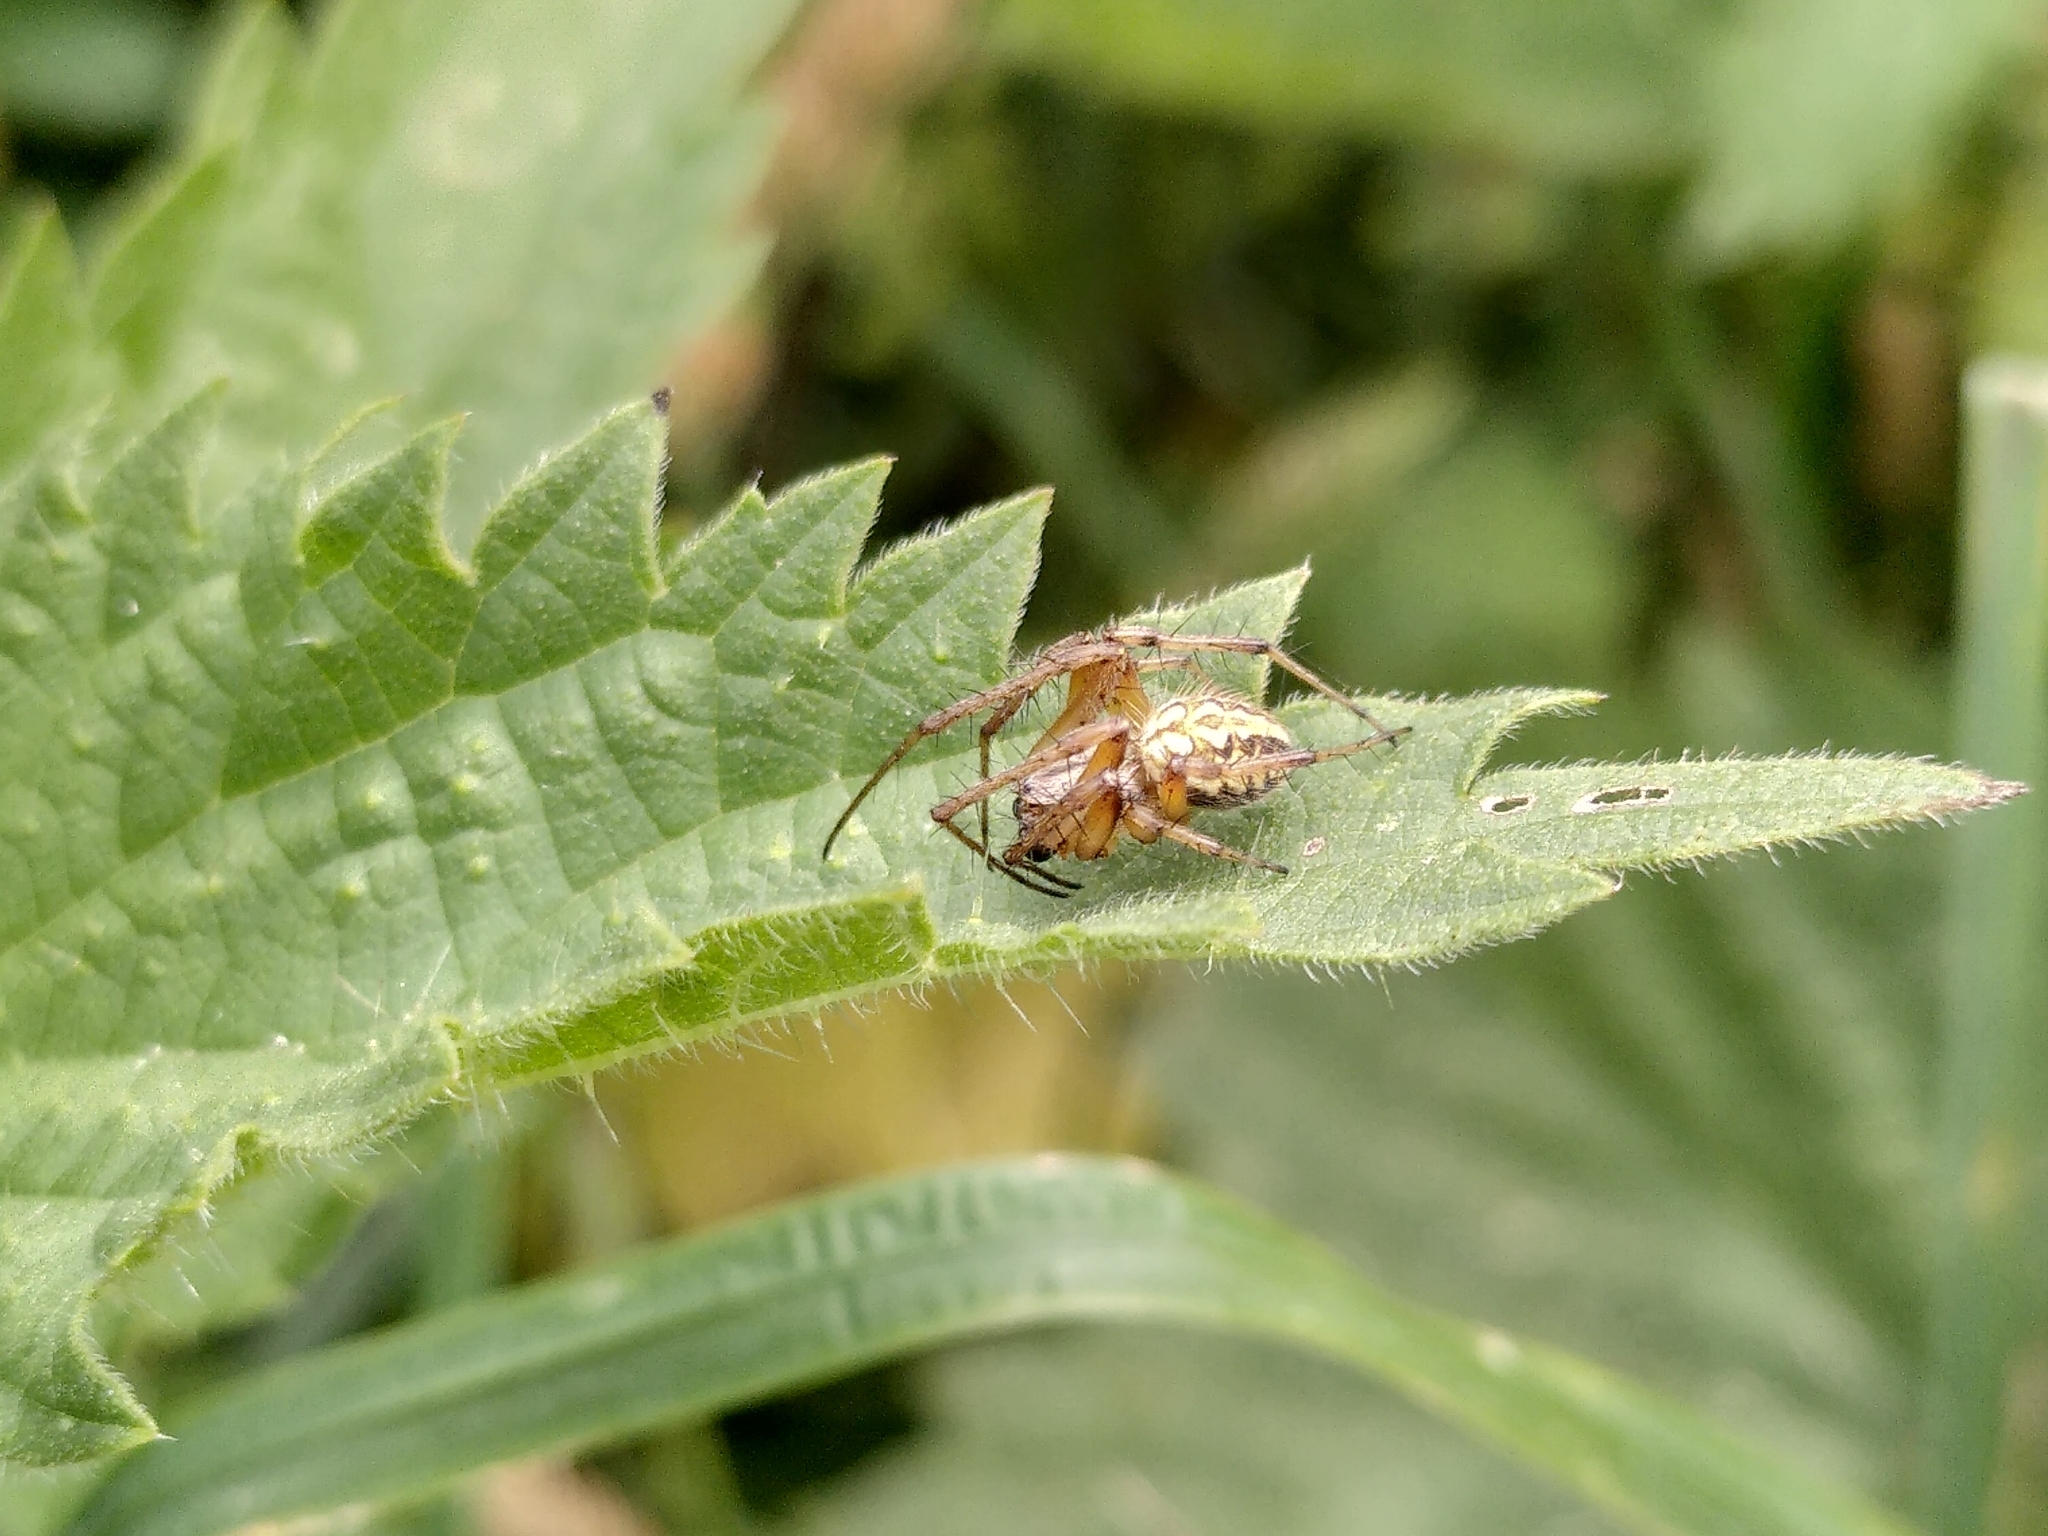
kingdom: Animalia
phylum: Arthropoda
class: Arachnida
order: Araneae
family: Araneidae
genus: Neoscona
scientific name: Neoscona adianta
